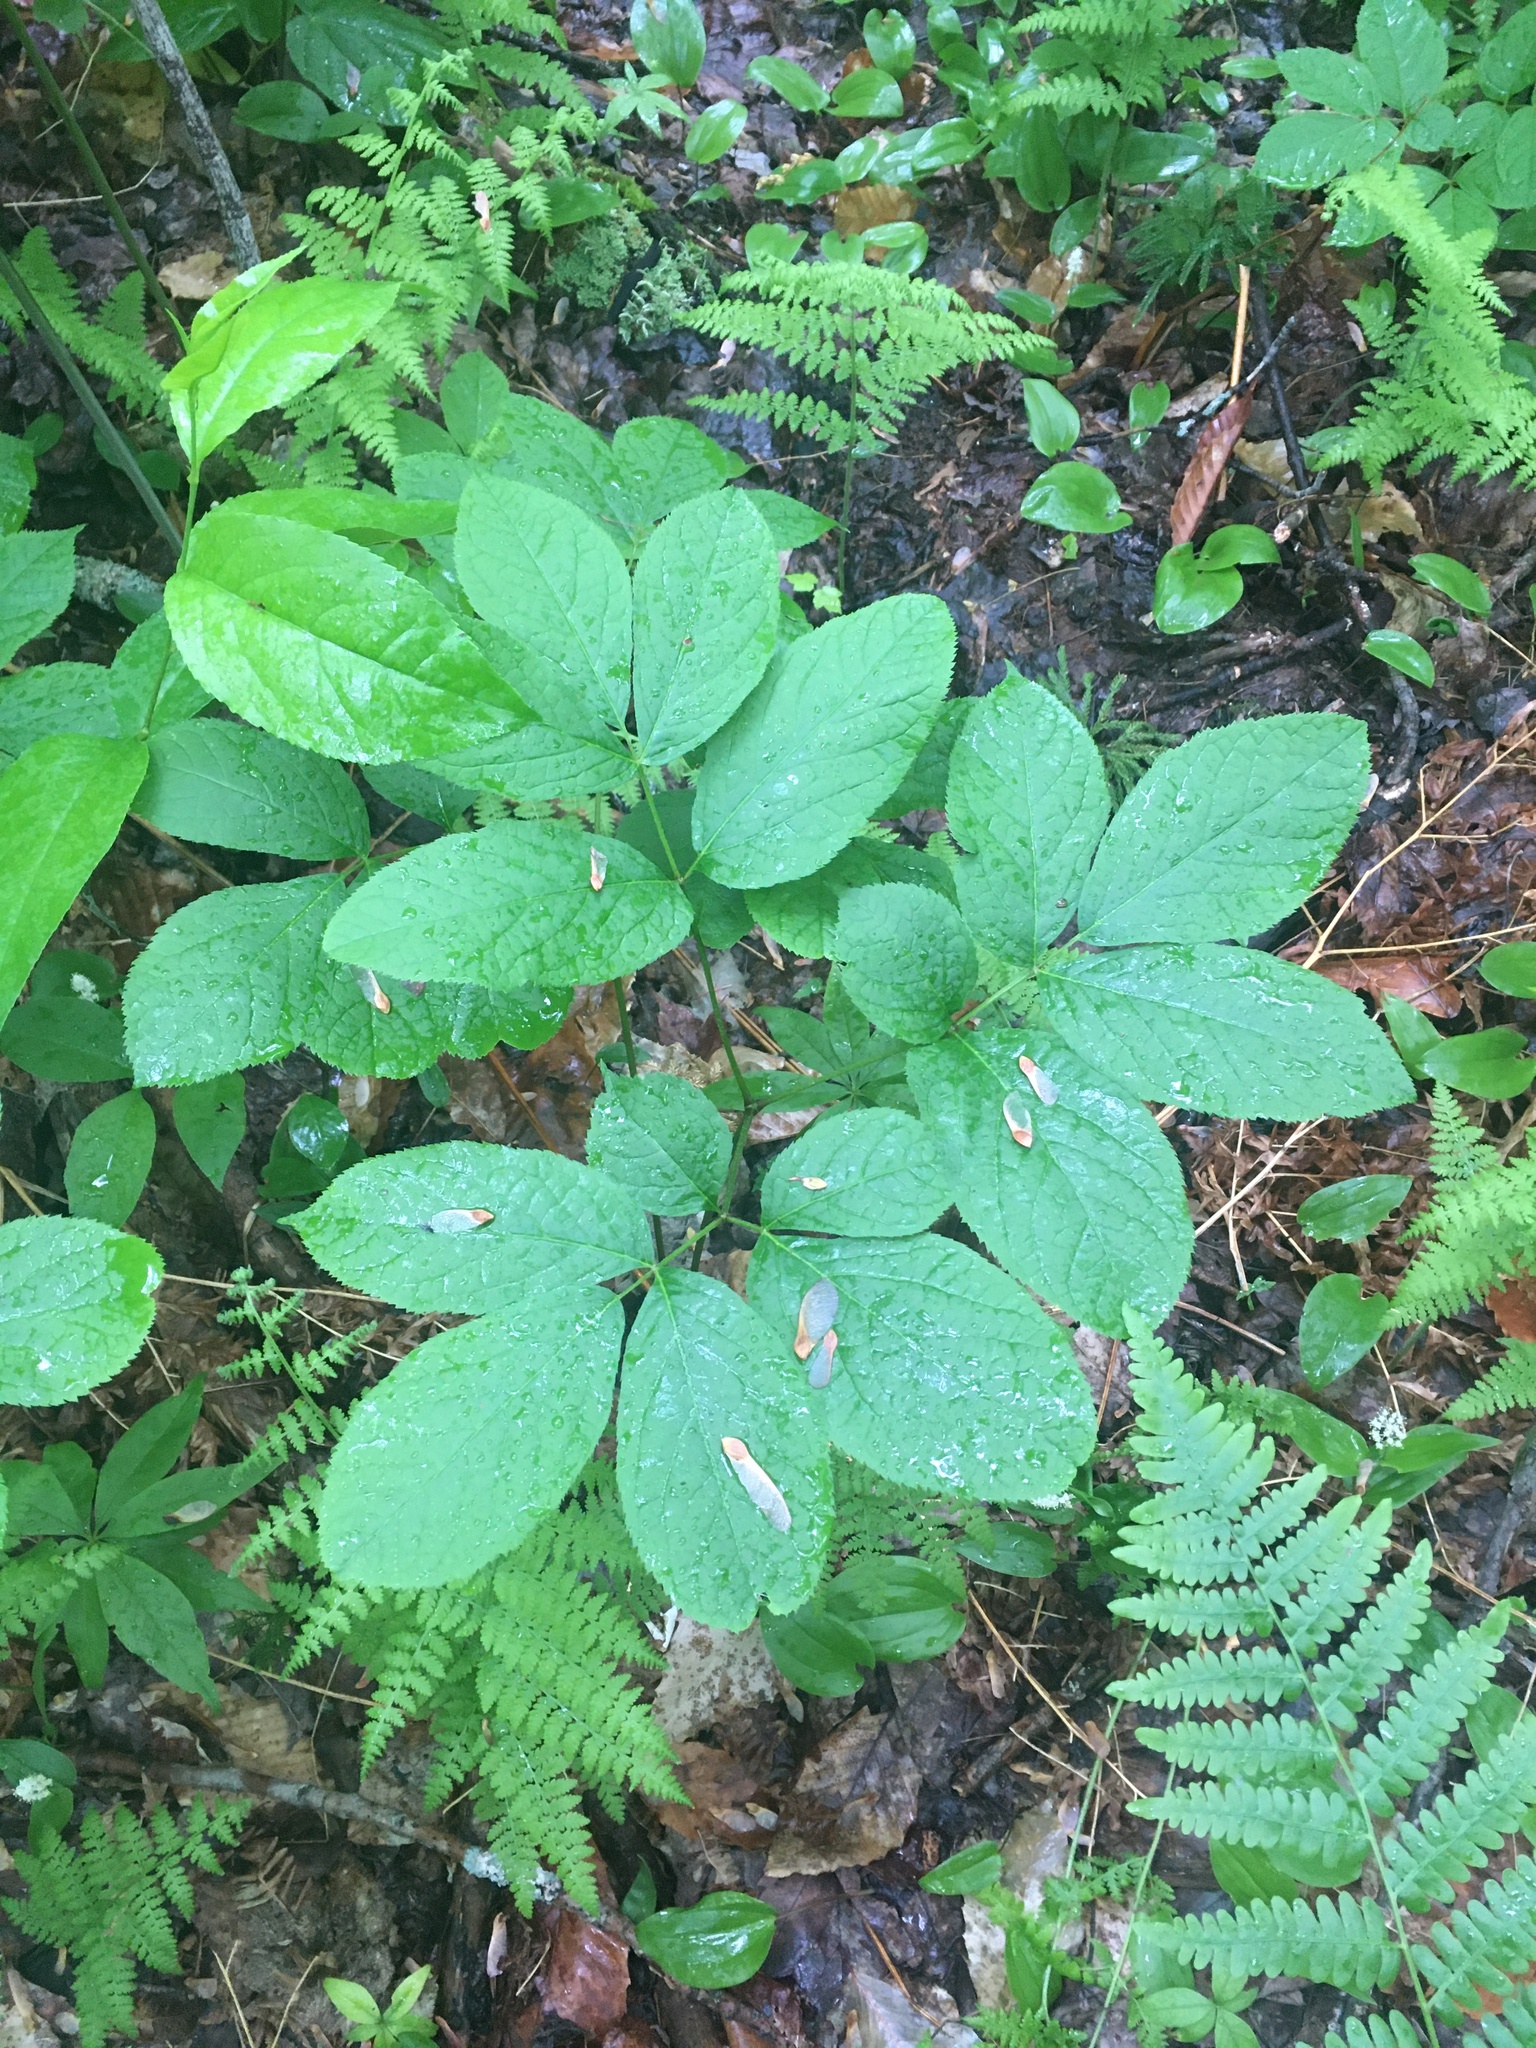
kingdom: Plantae
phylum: Tracheophyta
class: Magnoliopsida
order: Apiales
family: Araliaceae
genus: Aralia
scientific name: Aralia nudicaulis
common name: Wild sarsaparilla
